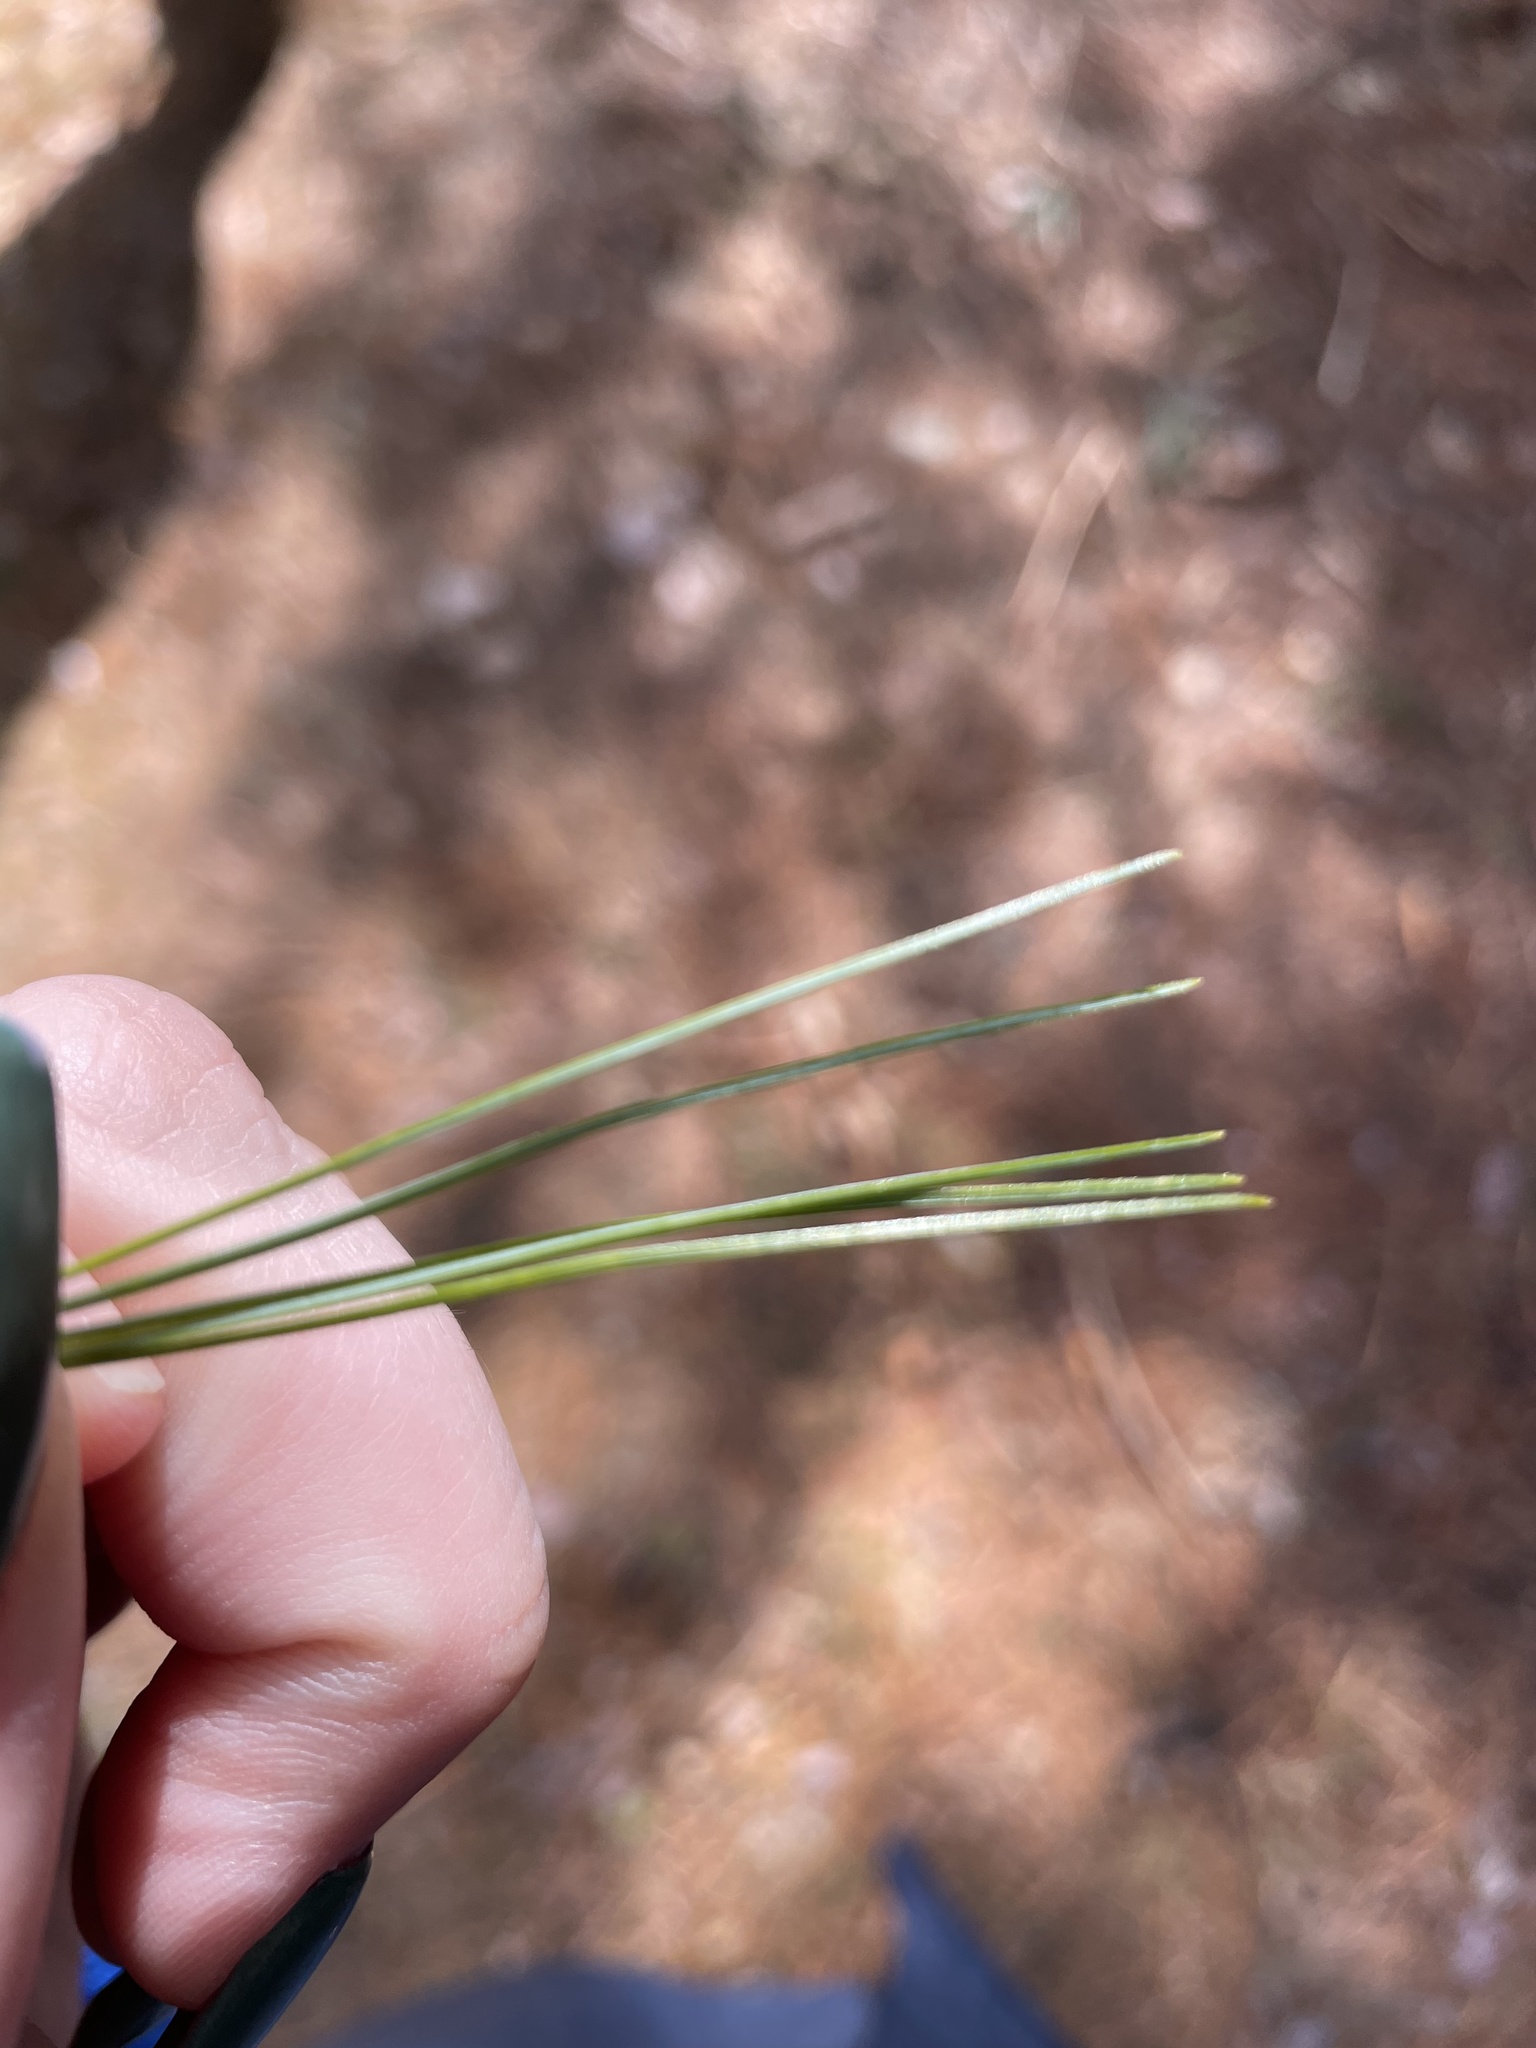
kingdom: Plantae
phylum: Tracheophyta
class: Pinopsida
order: Pinales
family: Pinaceae
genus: Pinus
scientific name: Pinus strobus
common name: Weymouth pine
